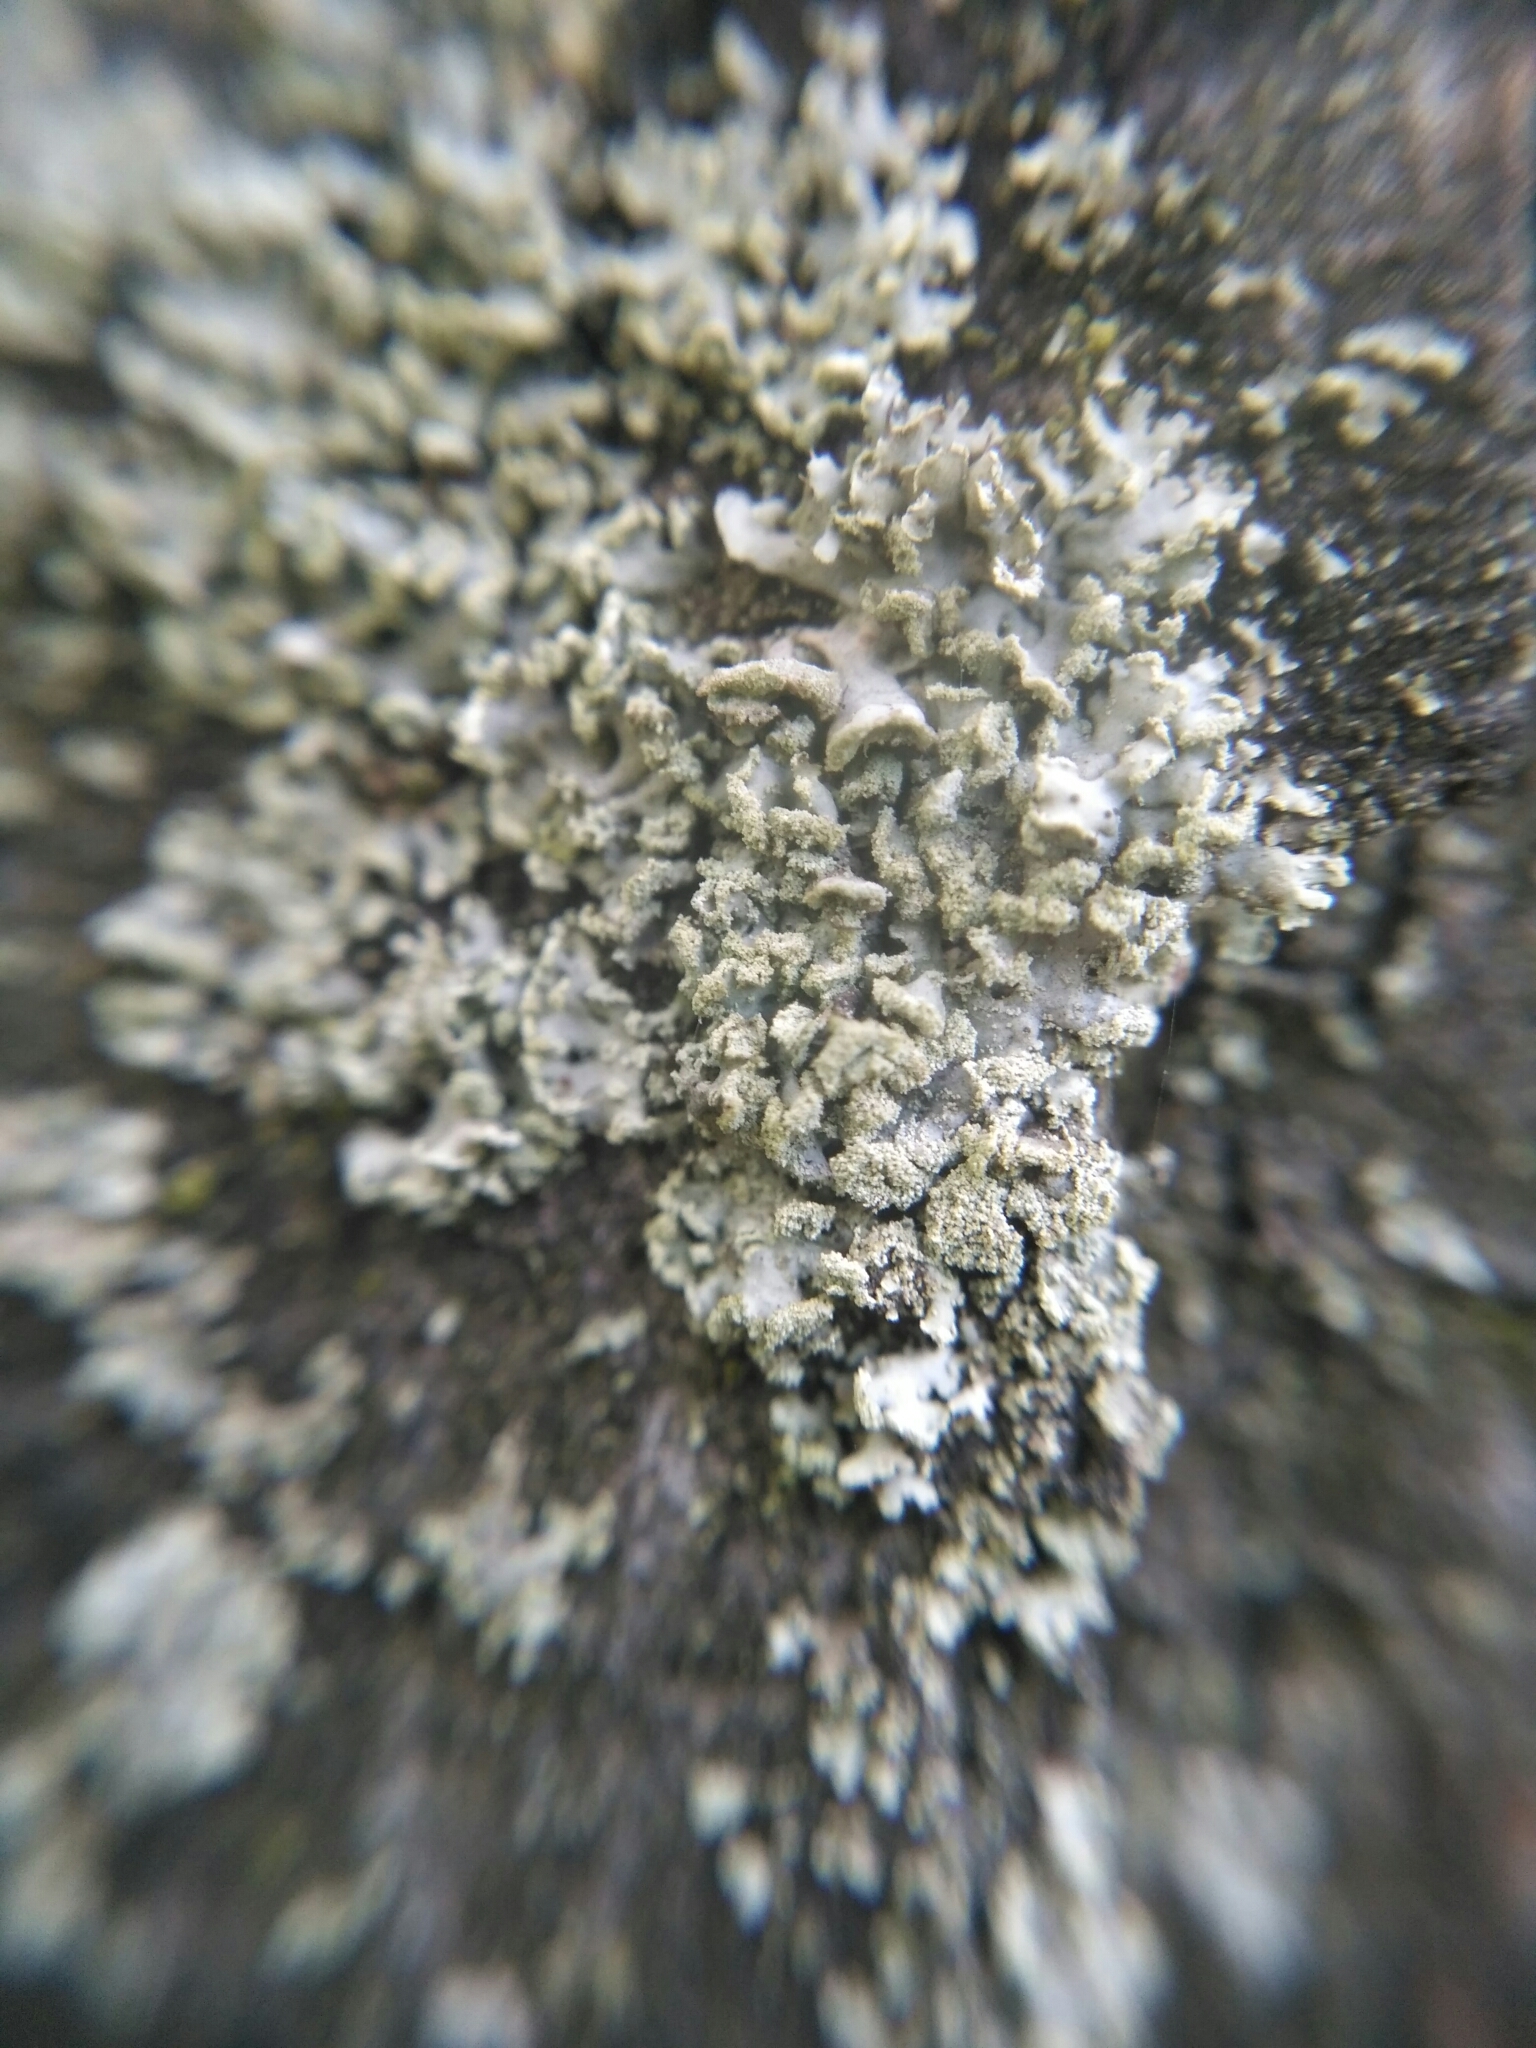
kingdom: Fungi
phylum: Ascomycota
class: Lecanoromycetes
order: Caliciales
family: Physciaceae
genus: Physcia
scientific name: Physcia tenella
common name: Fringed rosette lichen
